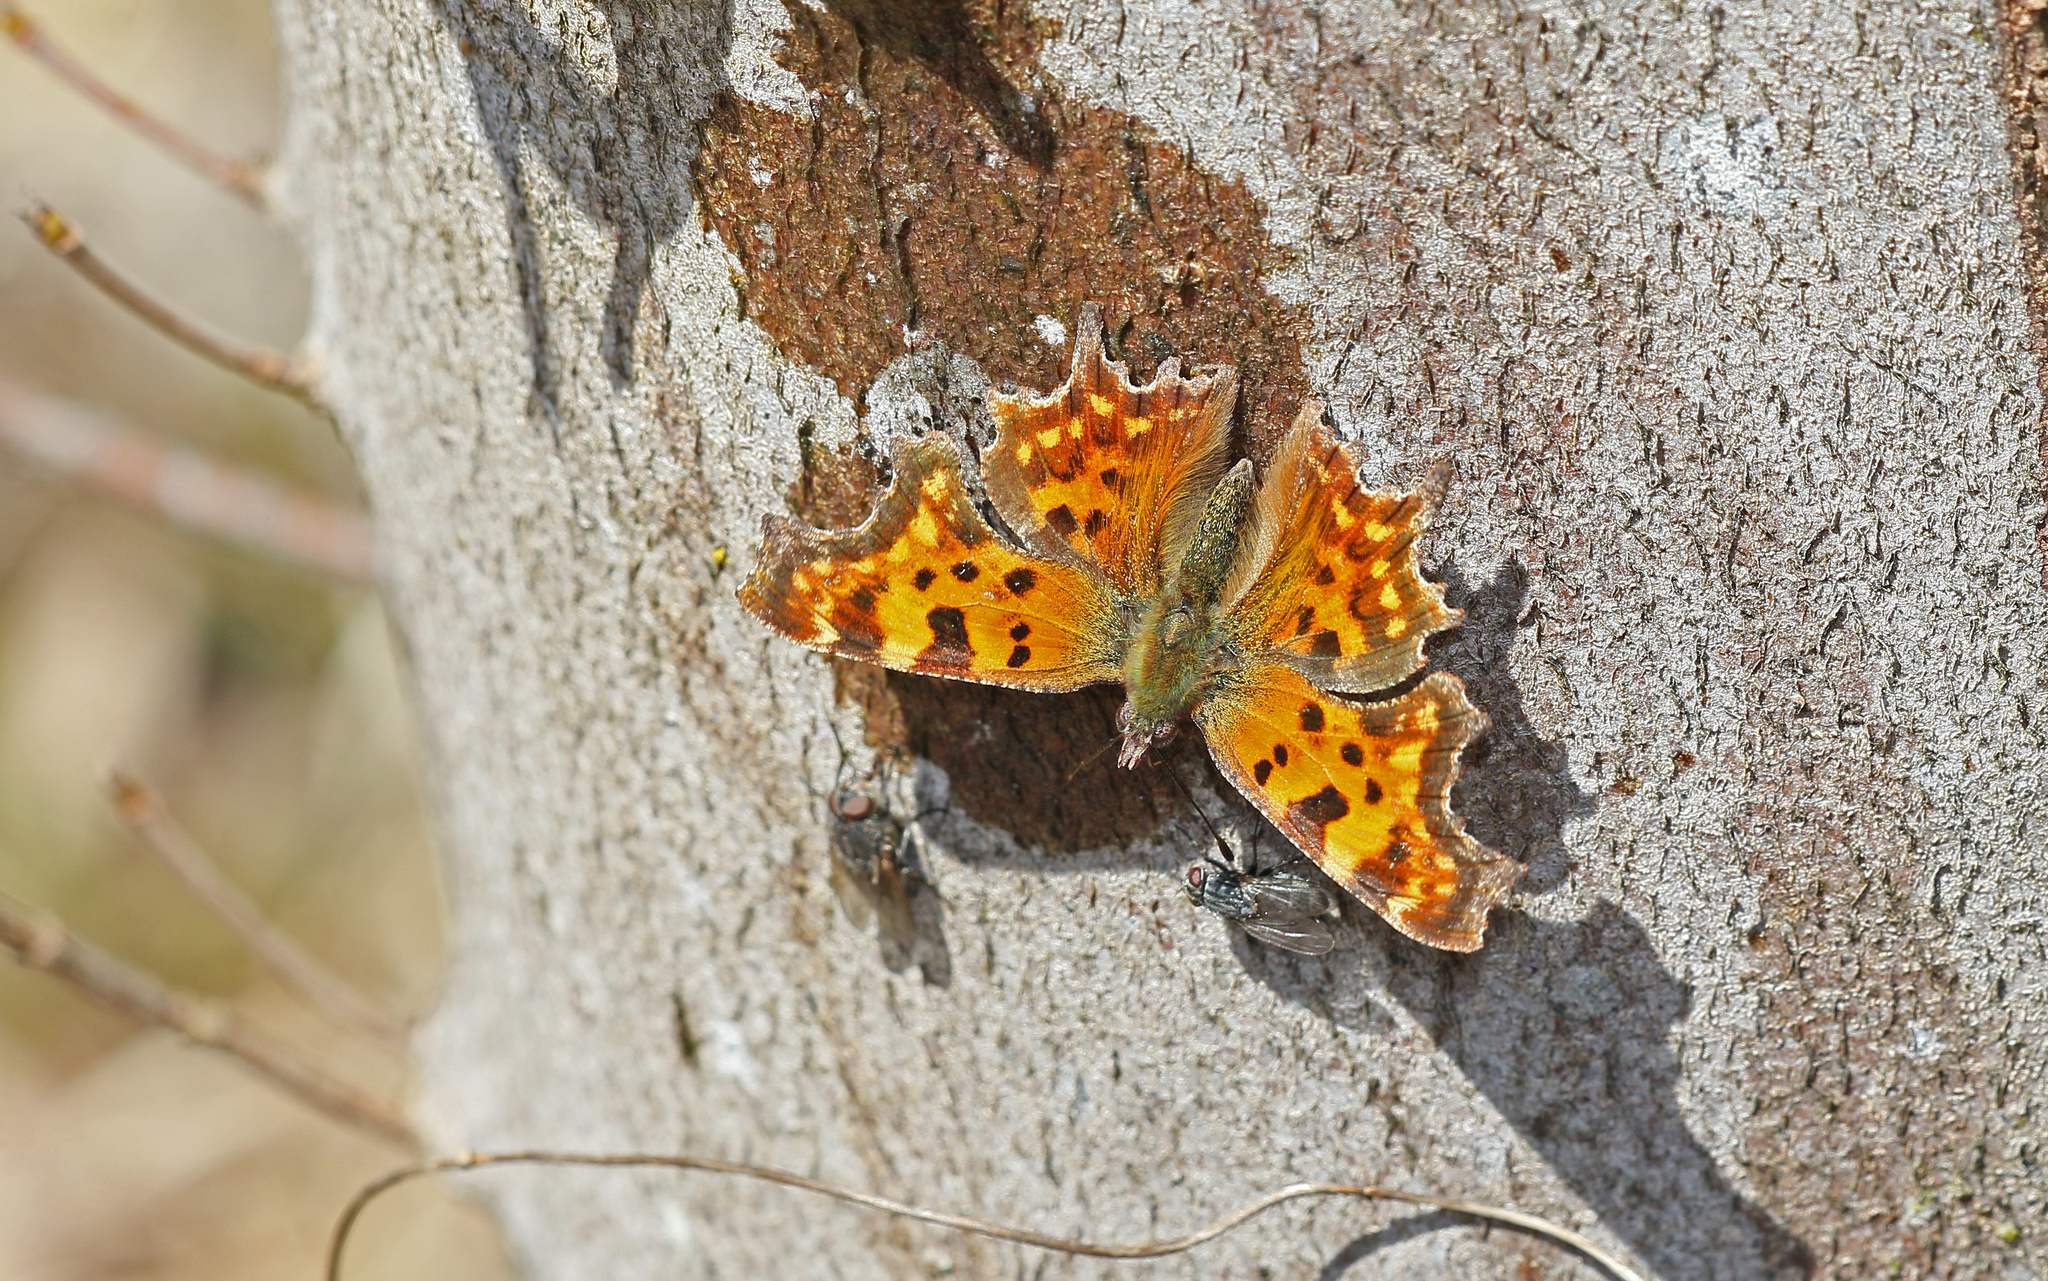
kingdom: Animalia
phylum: Arthropoda
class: Insecta
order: Lepidoptera
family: Nymphalidae
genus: Polygonia
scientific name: Polygonia c-album
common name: Comma
